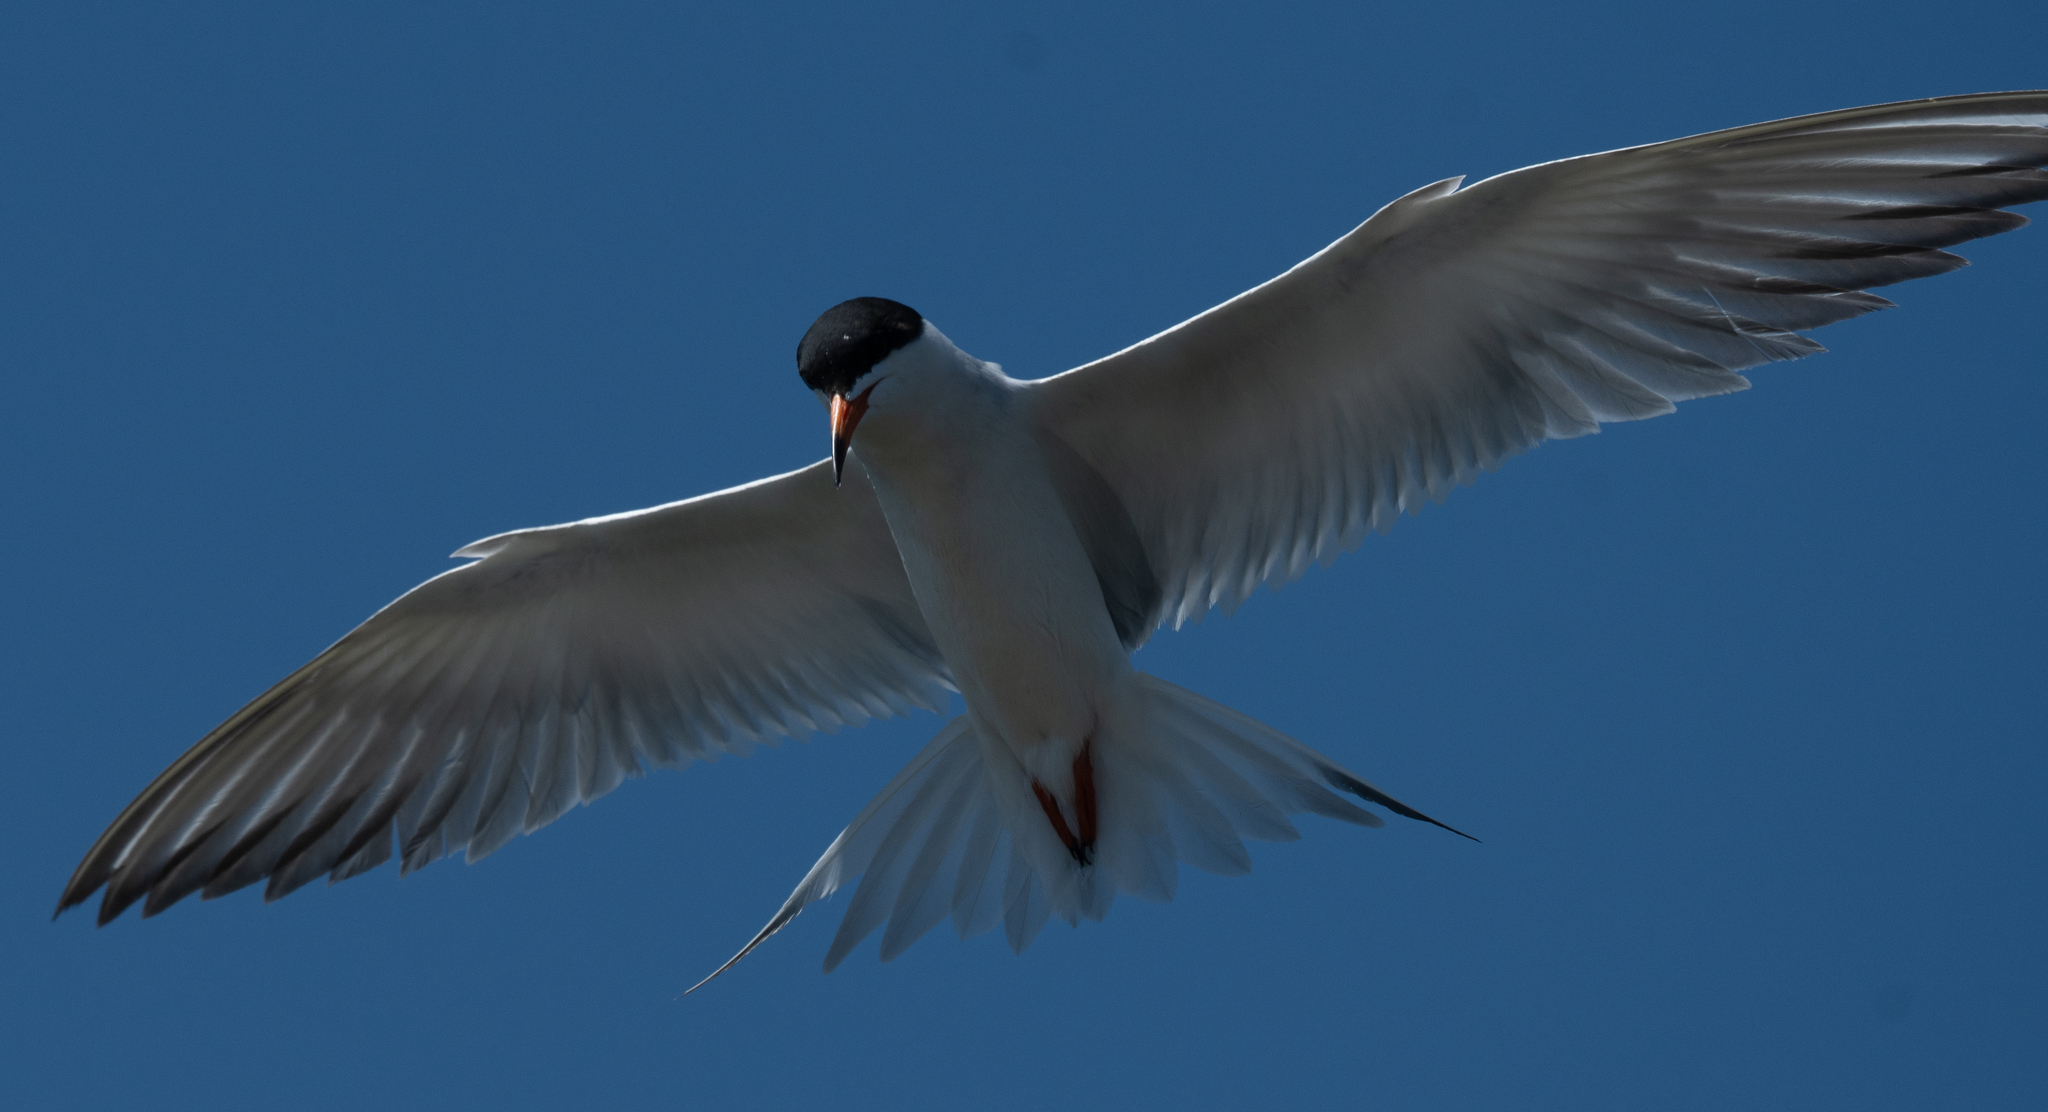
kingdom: Animalia
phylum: Chordata
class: Aves
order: Charadriiformes
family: Laridae
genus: Sterna
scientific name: Sterna forsteri
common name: Forster's tern
